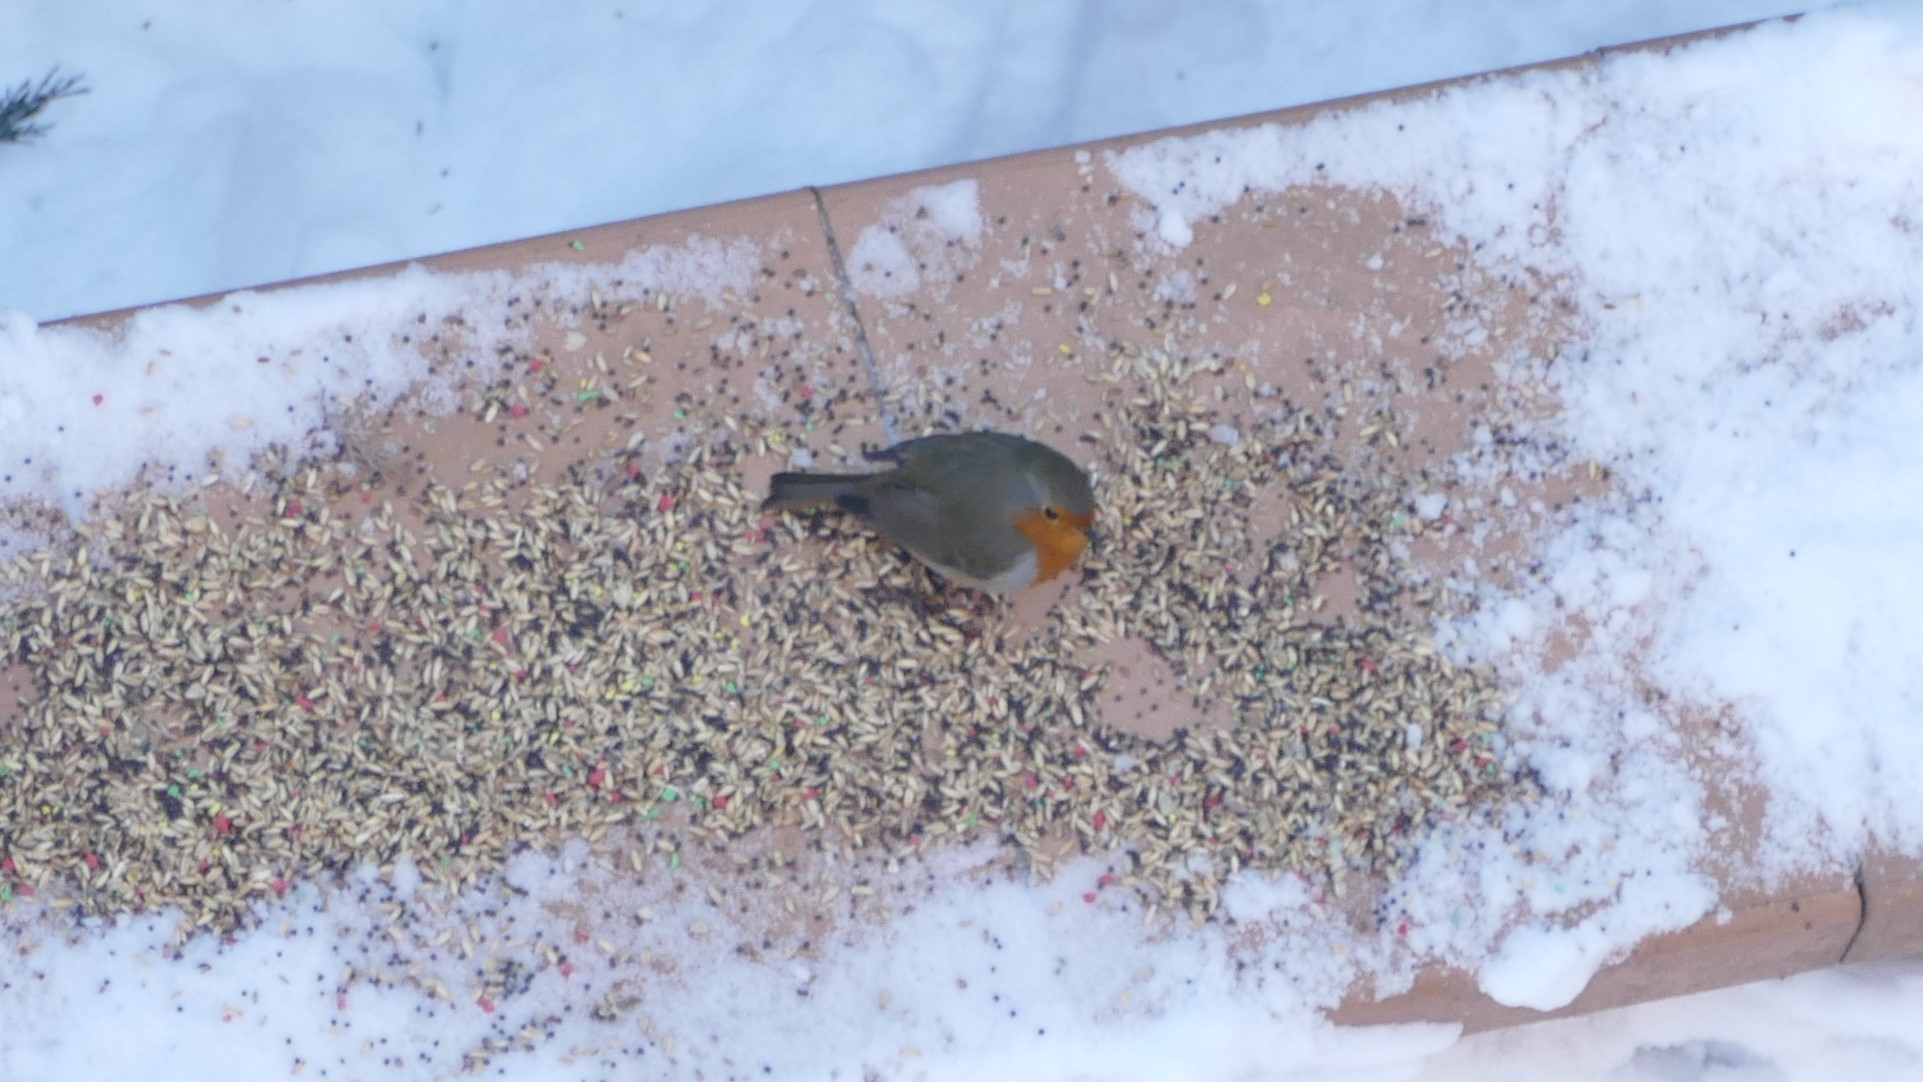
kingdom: Animalia
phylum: Chordata
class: Aves
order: Passeriformes
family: Muscicapidae
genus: Erithacus
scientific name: Erithacus rubecula
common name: European robin
